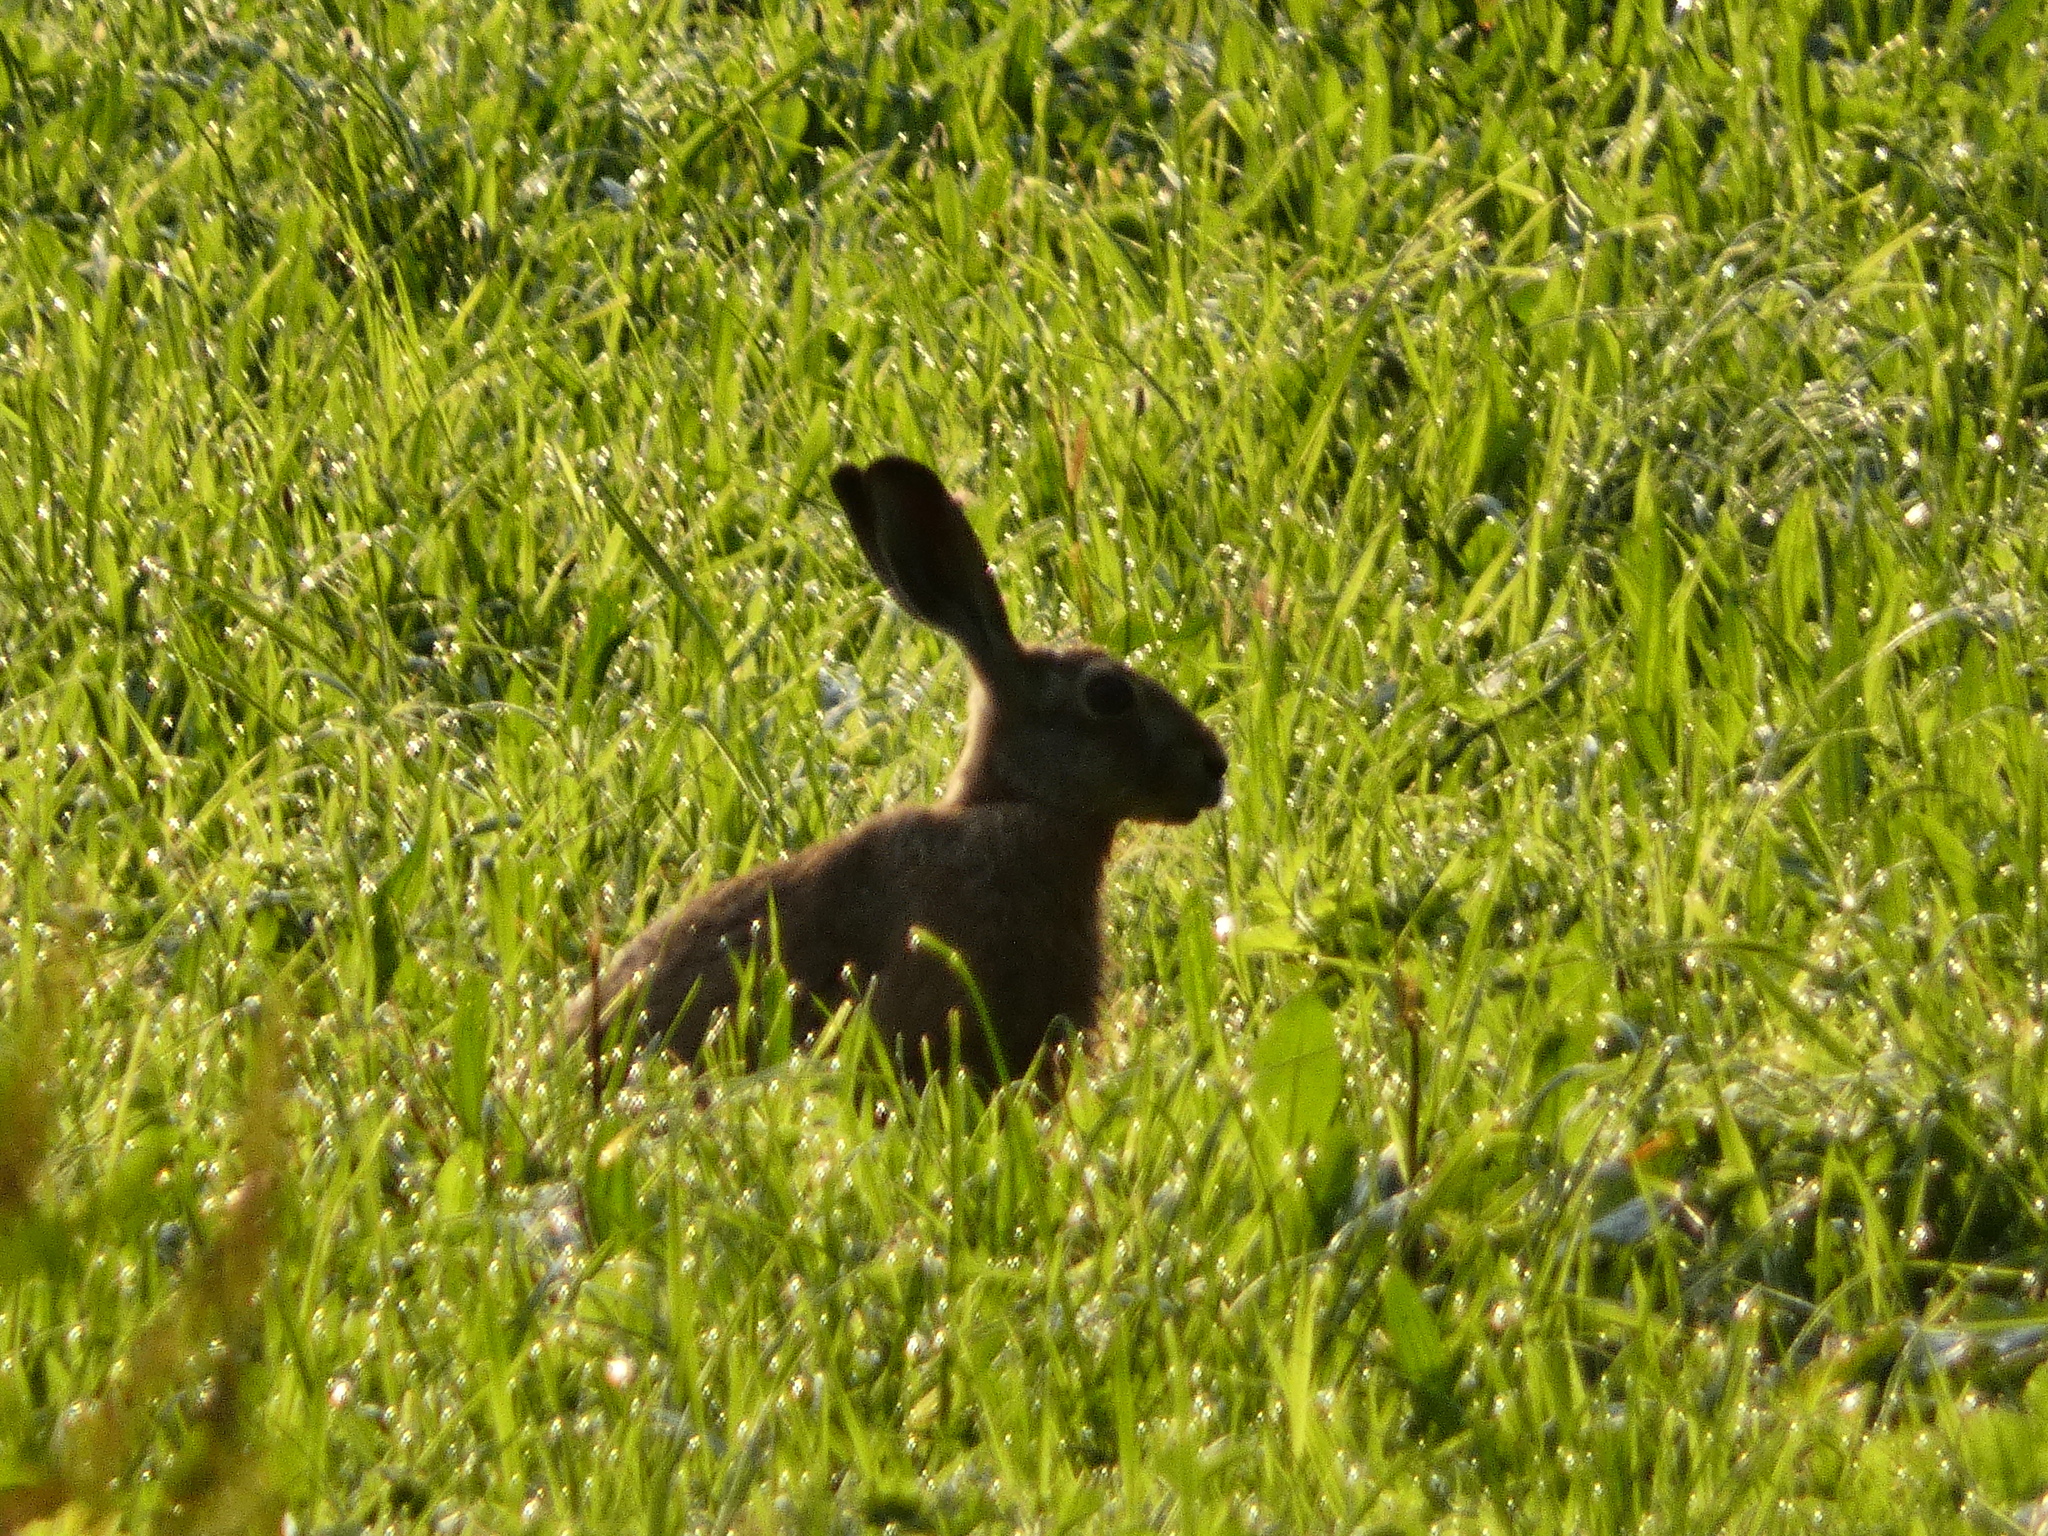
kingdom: Animalia
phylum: Chordata
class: Mammalia
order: Lagomorpha
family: Leporidae
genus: Lepus
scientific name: Lepus europaeus
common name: European hare
